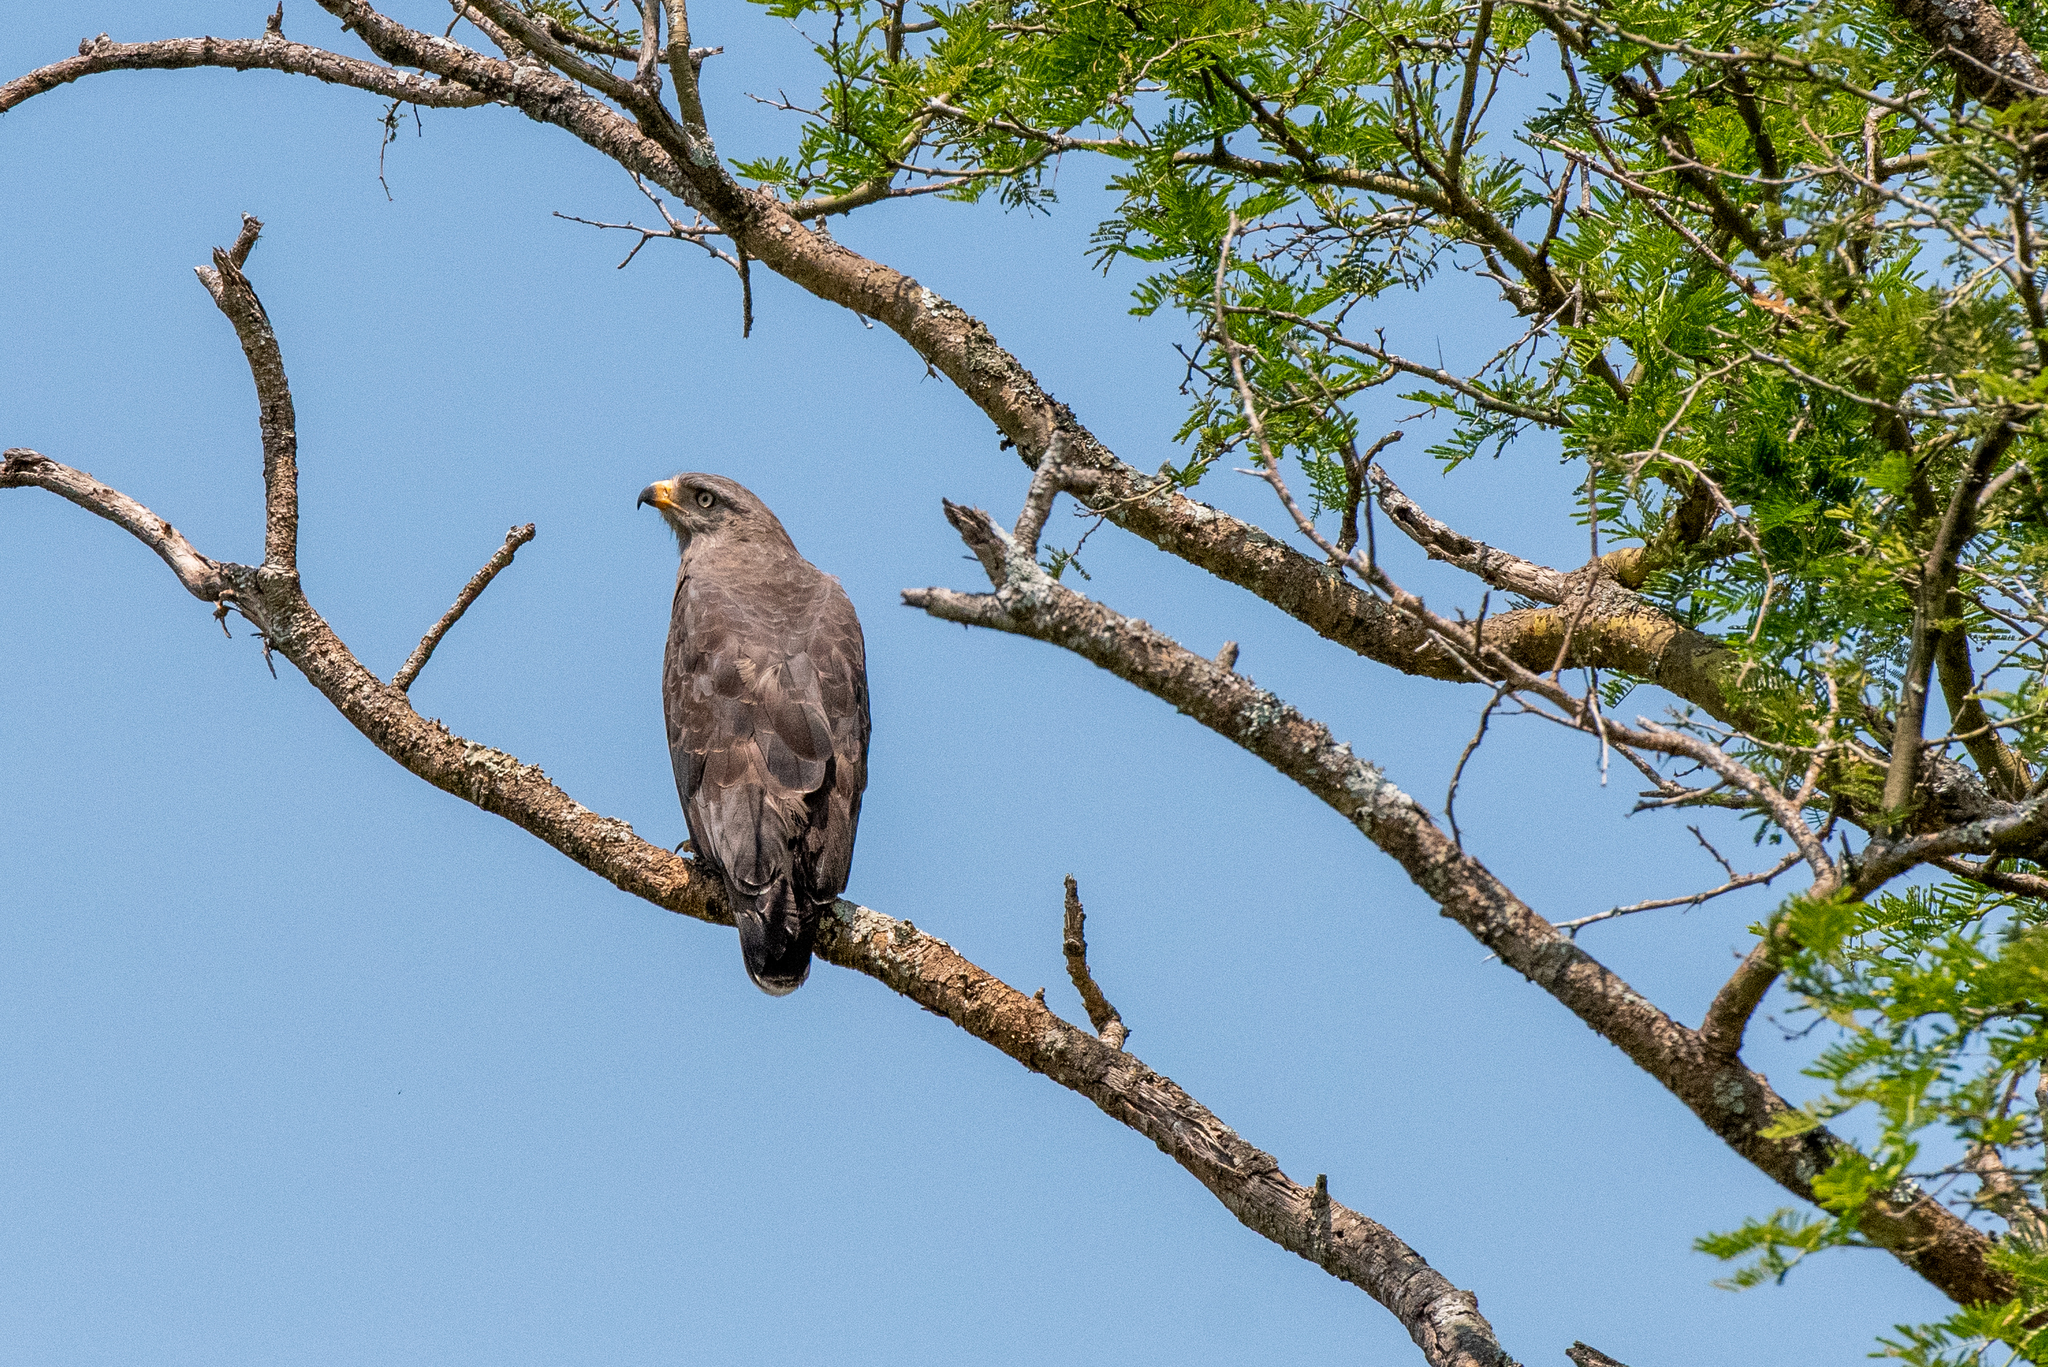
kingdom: Animalia
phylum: Chordata
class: Aves
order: Accipitriformes
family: Accipitridae
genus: Circaetus
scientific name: Circaetus cinerascens
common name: Western banded snake eagle
